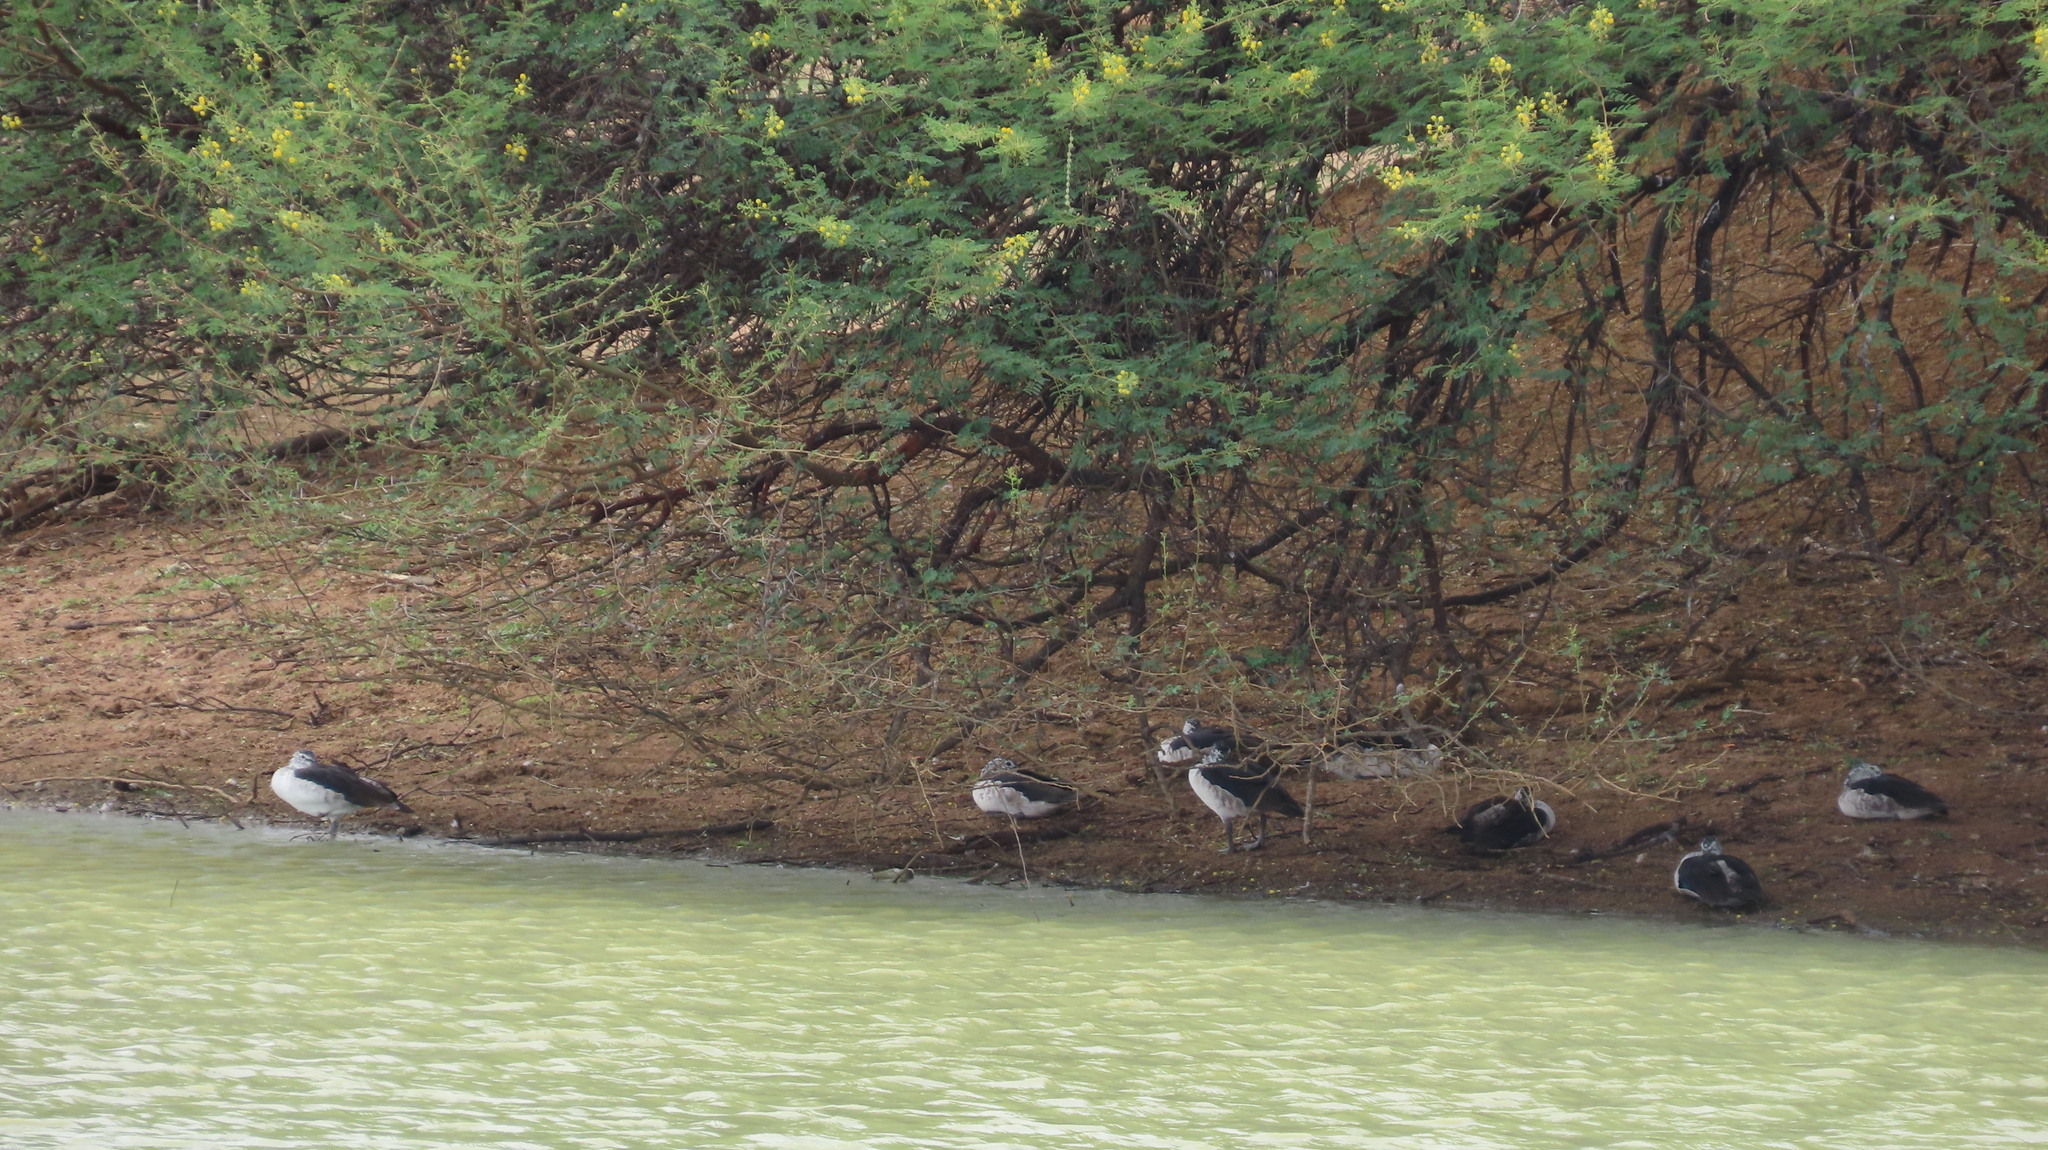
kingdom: Animalia
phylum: Chordata
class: Aves
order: Anseriformes
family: Anatidae
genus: Sarkidiornis
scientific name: Sarkidiornis melanotos
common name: Comb duck
